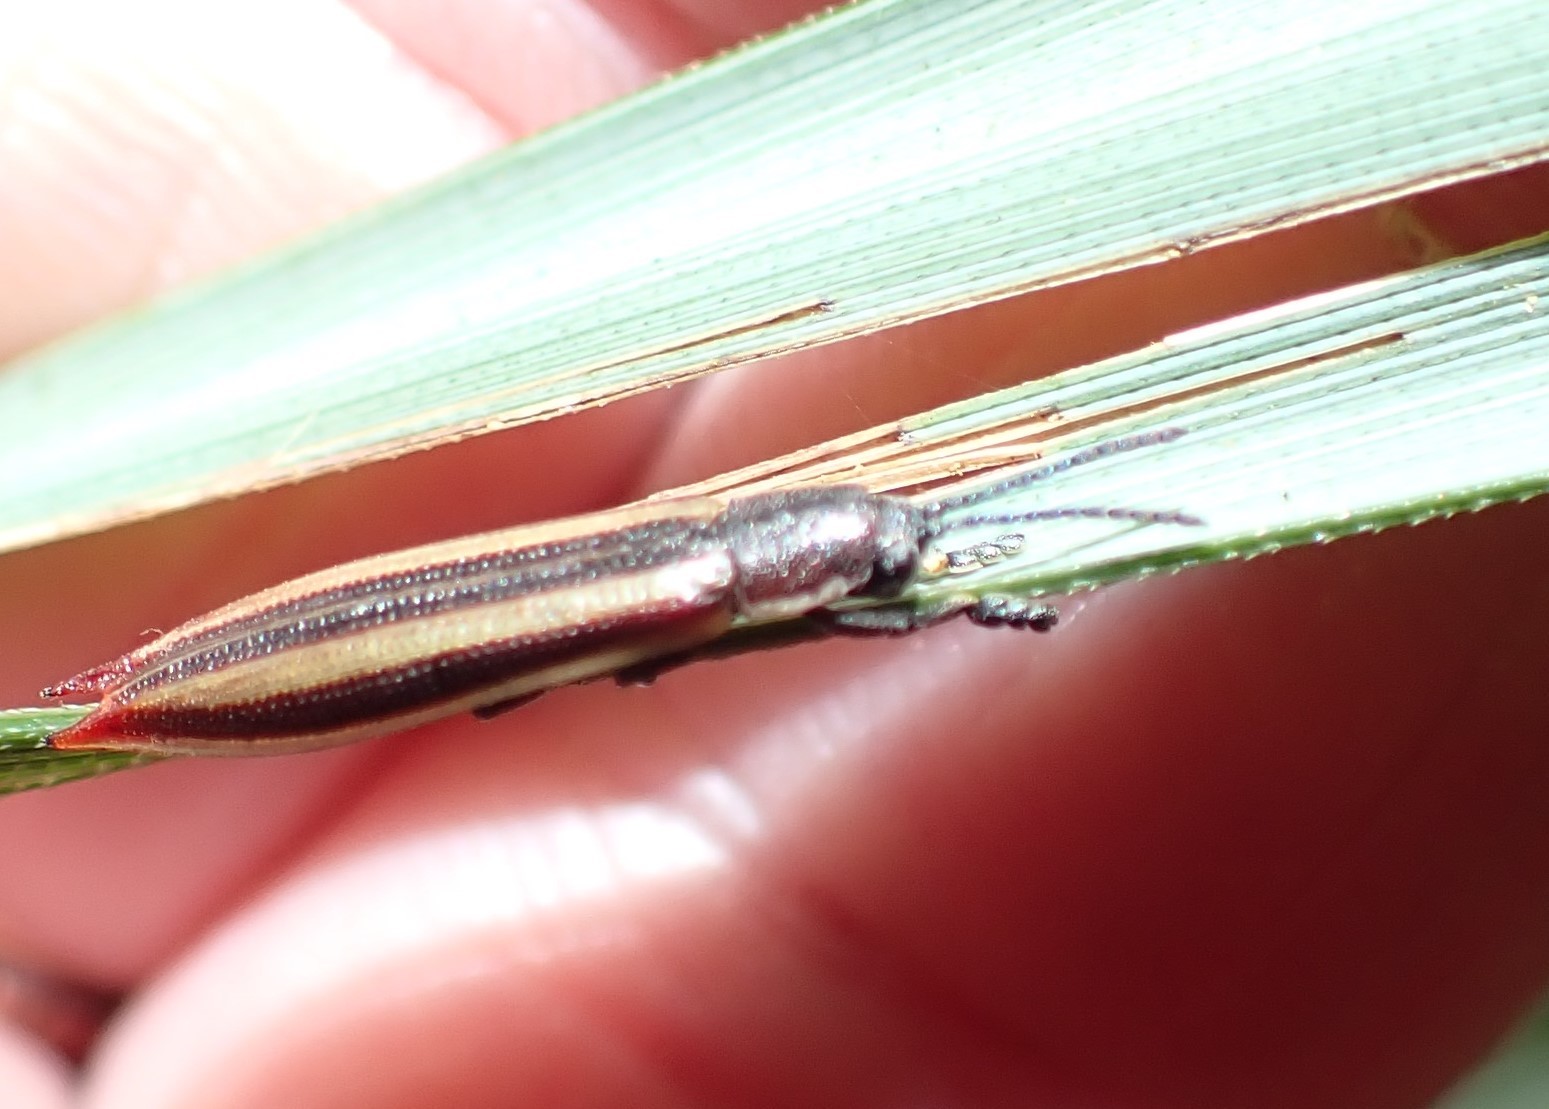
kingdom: Animalia
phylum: Arthropoda
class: Insecta
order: Coleoptera
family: Chrysomelidae
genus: Eurispa
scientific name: Eurispa vittata
